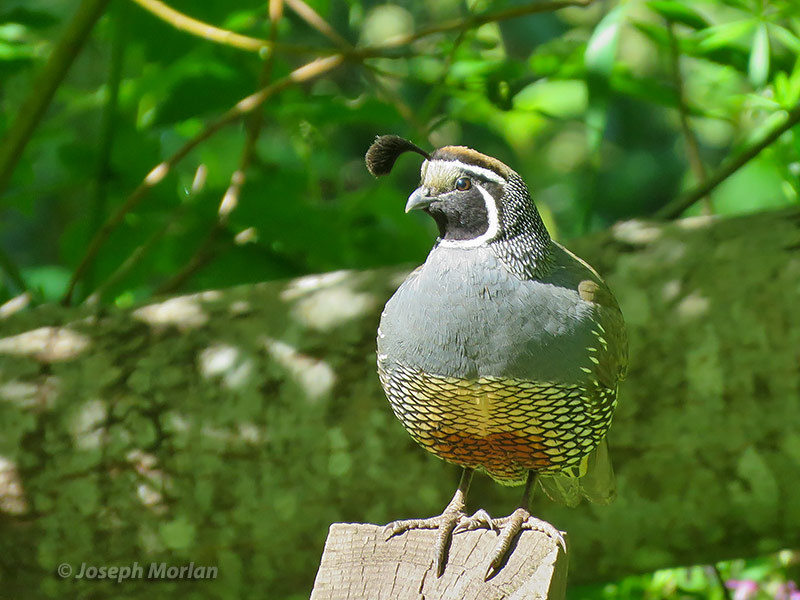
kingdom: Animalia
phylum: Chordata
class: Aves
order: Galliformes
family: Odontophoridae
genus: Callipepla
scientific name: Callipepla californica
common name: California quail
